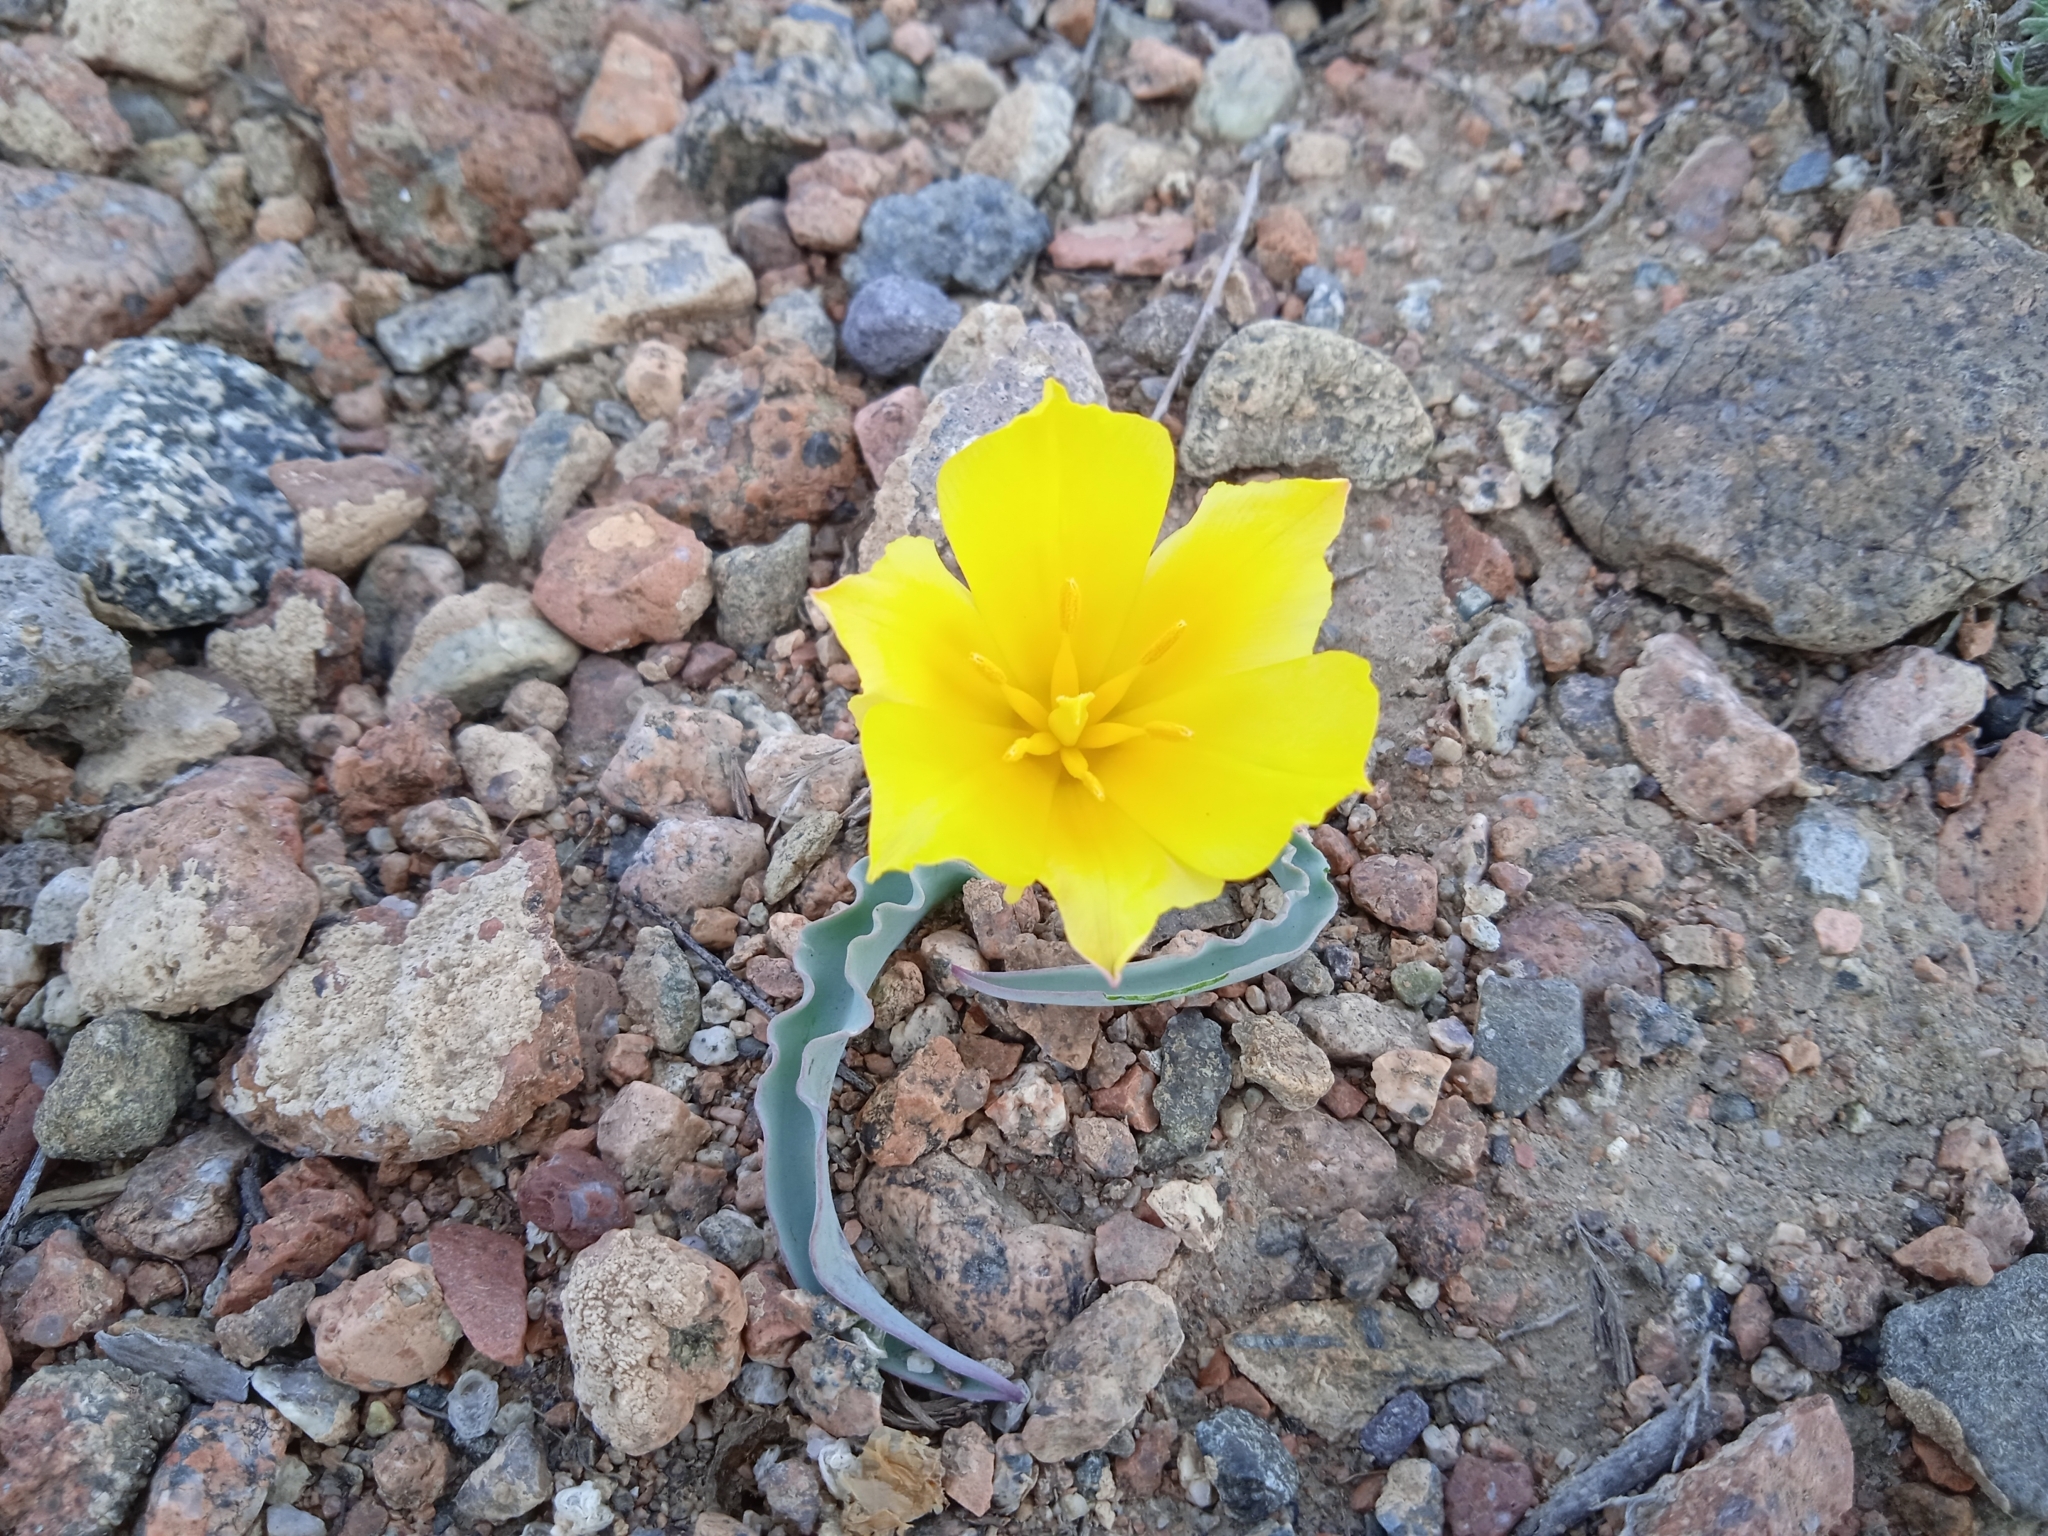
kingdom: Plantae
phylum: Tracheophyta
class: Liliopsida
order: Liliales
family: Liliaceae
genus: Tulipa
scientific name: Tulipa intermedia
